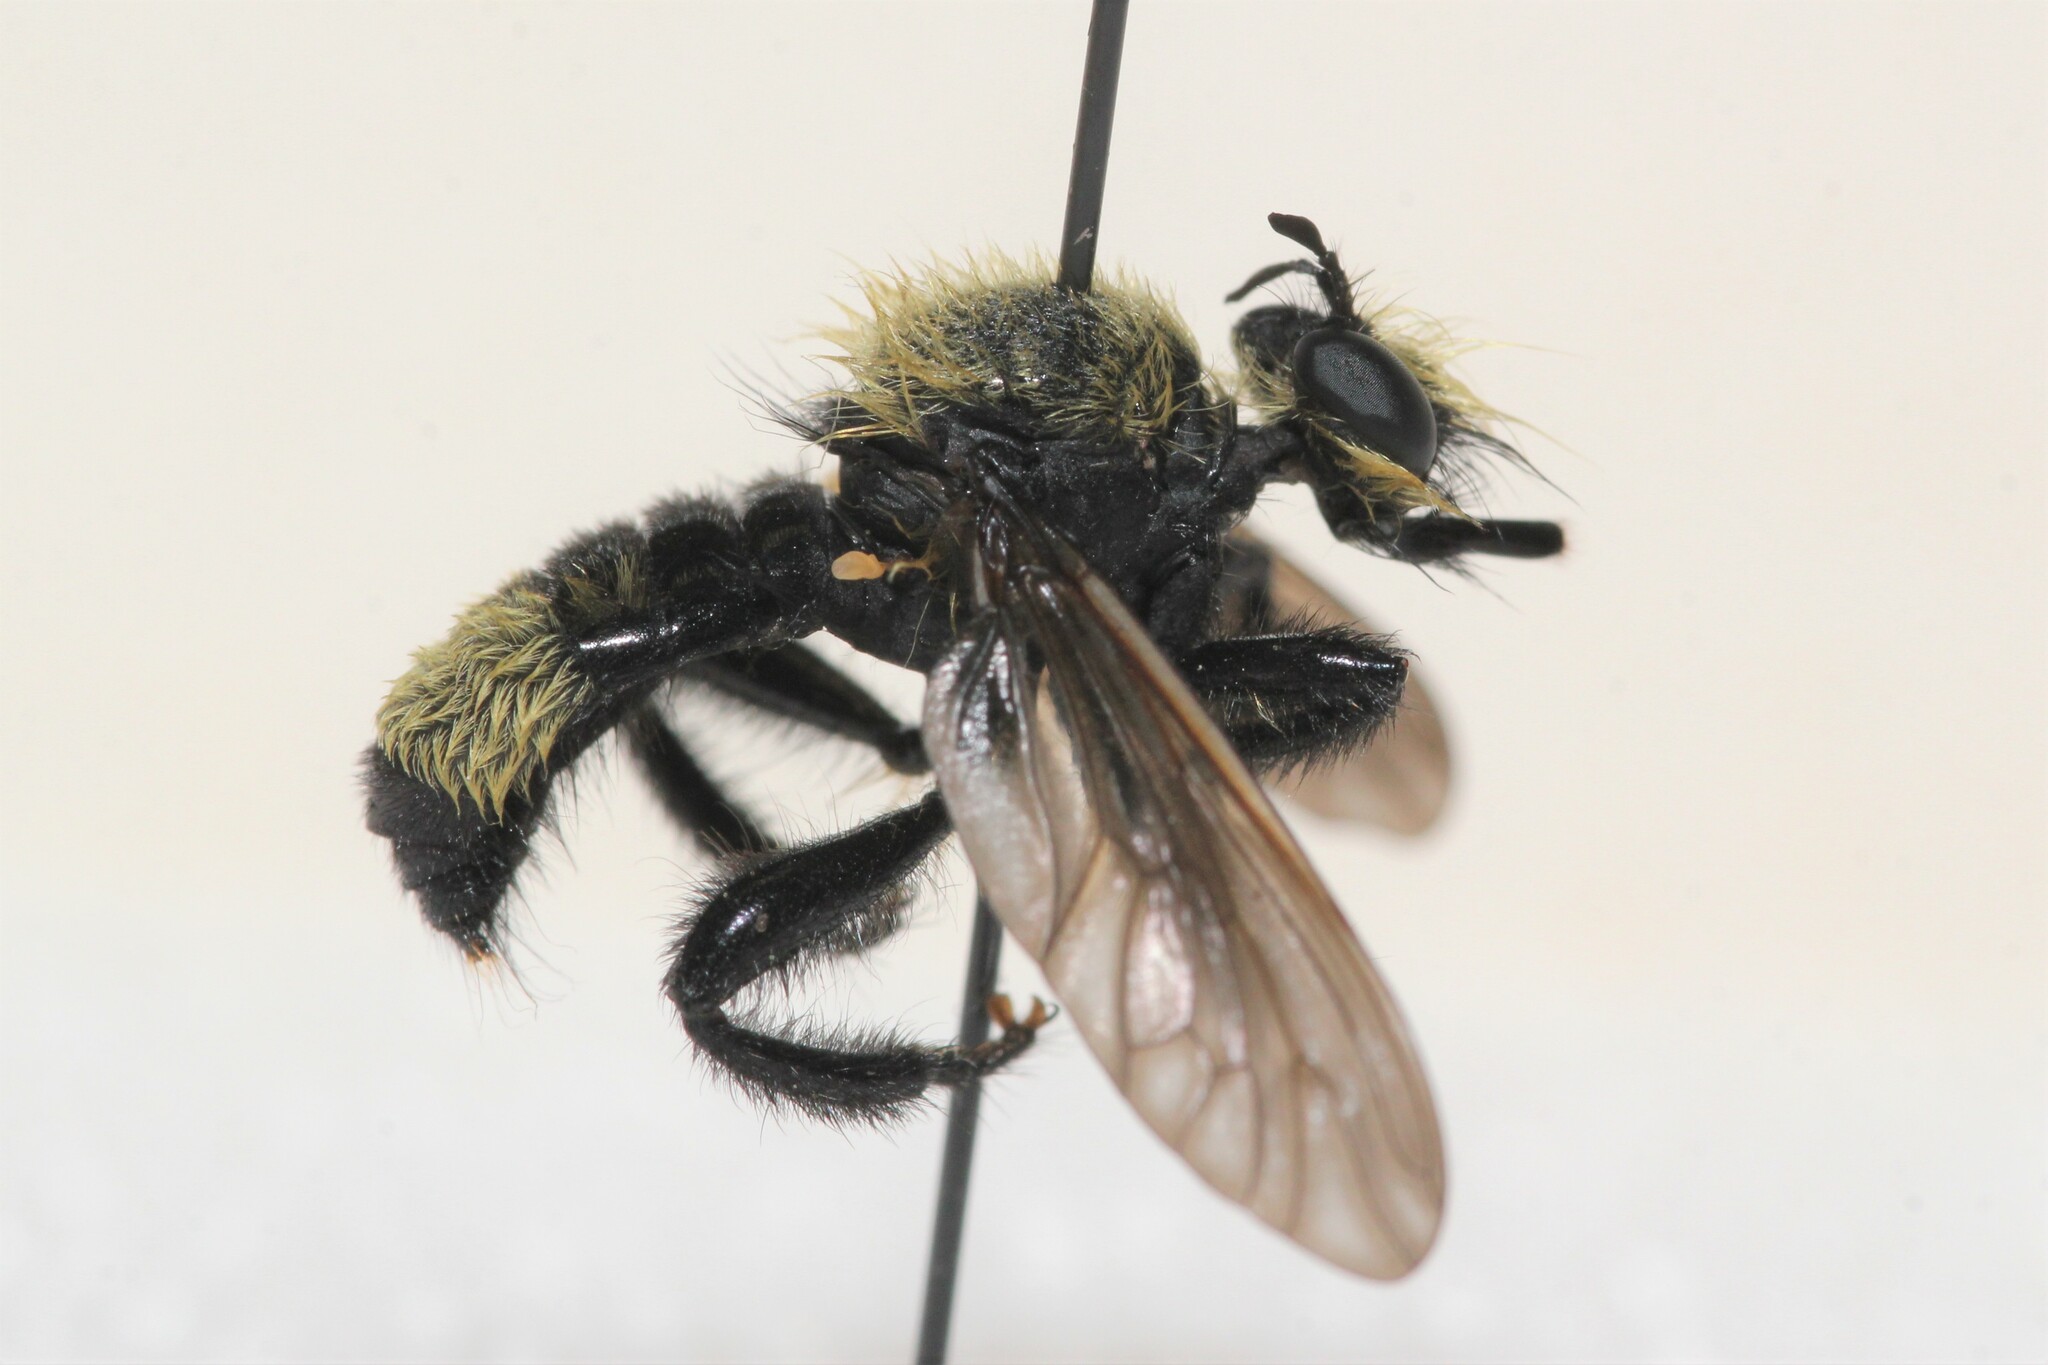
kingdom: Animalia
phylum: Arthropoda
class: Insecta
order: Diptera
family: Asilidae
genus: Laphria
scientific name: Laphria posticata
